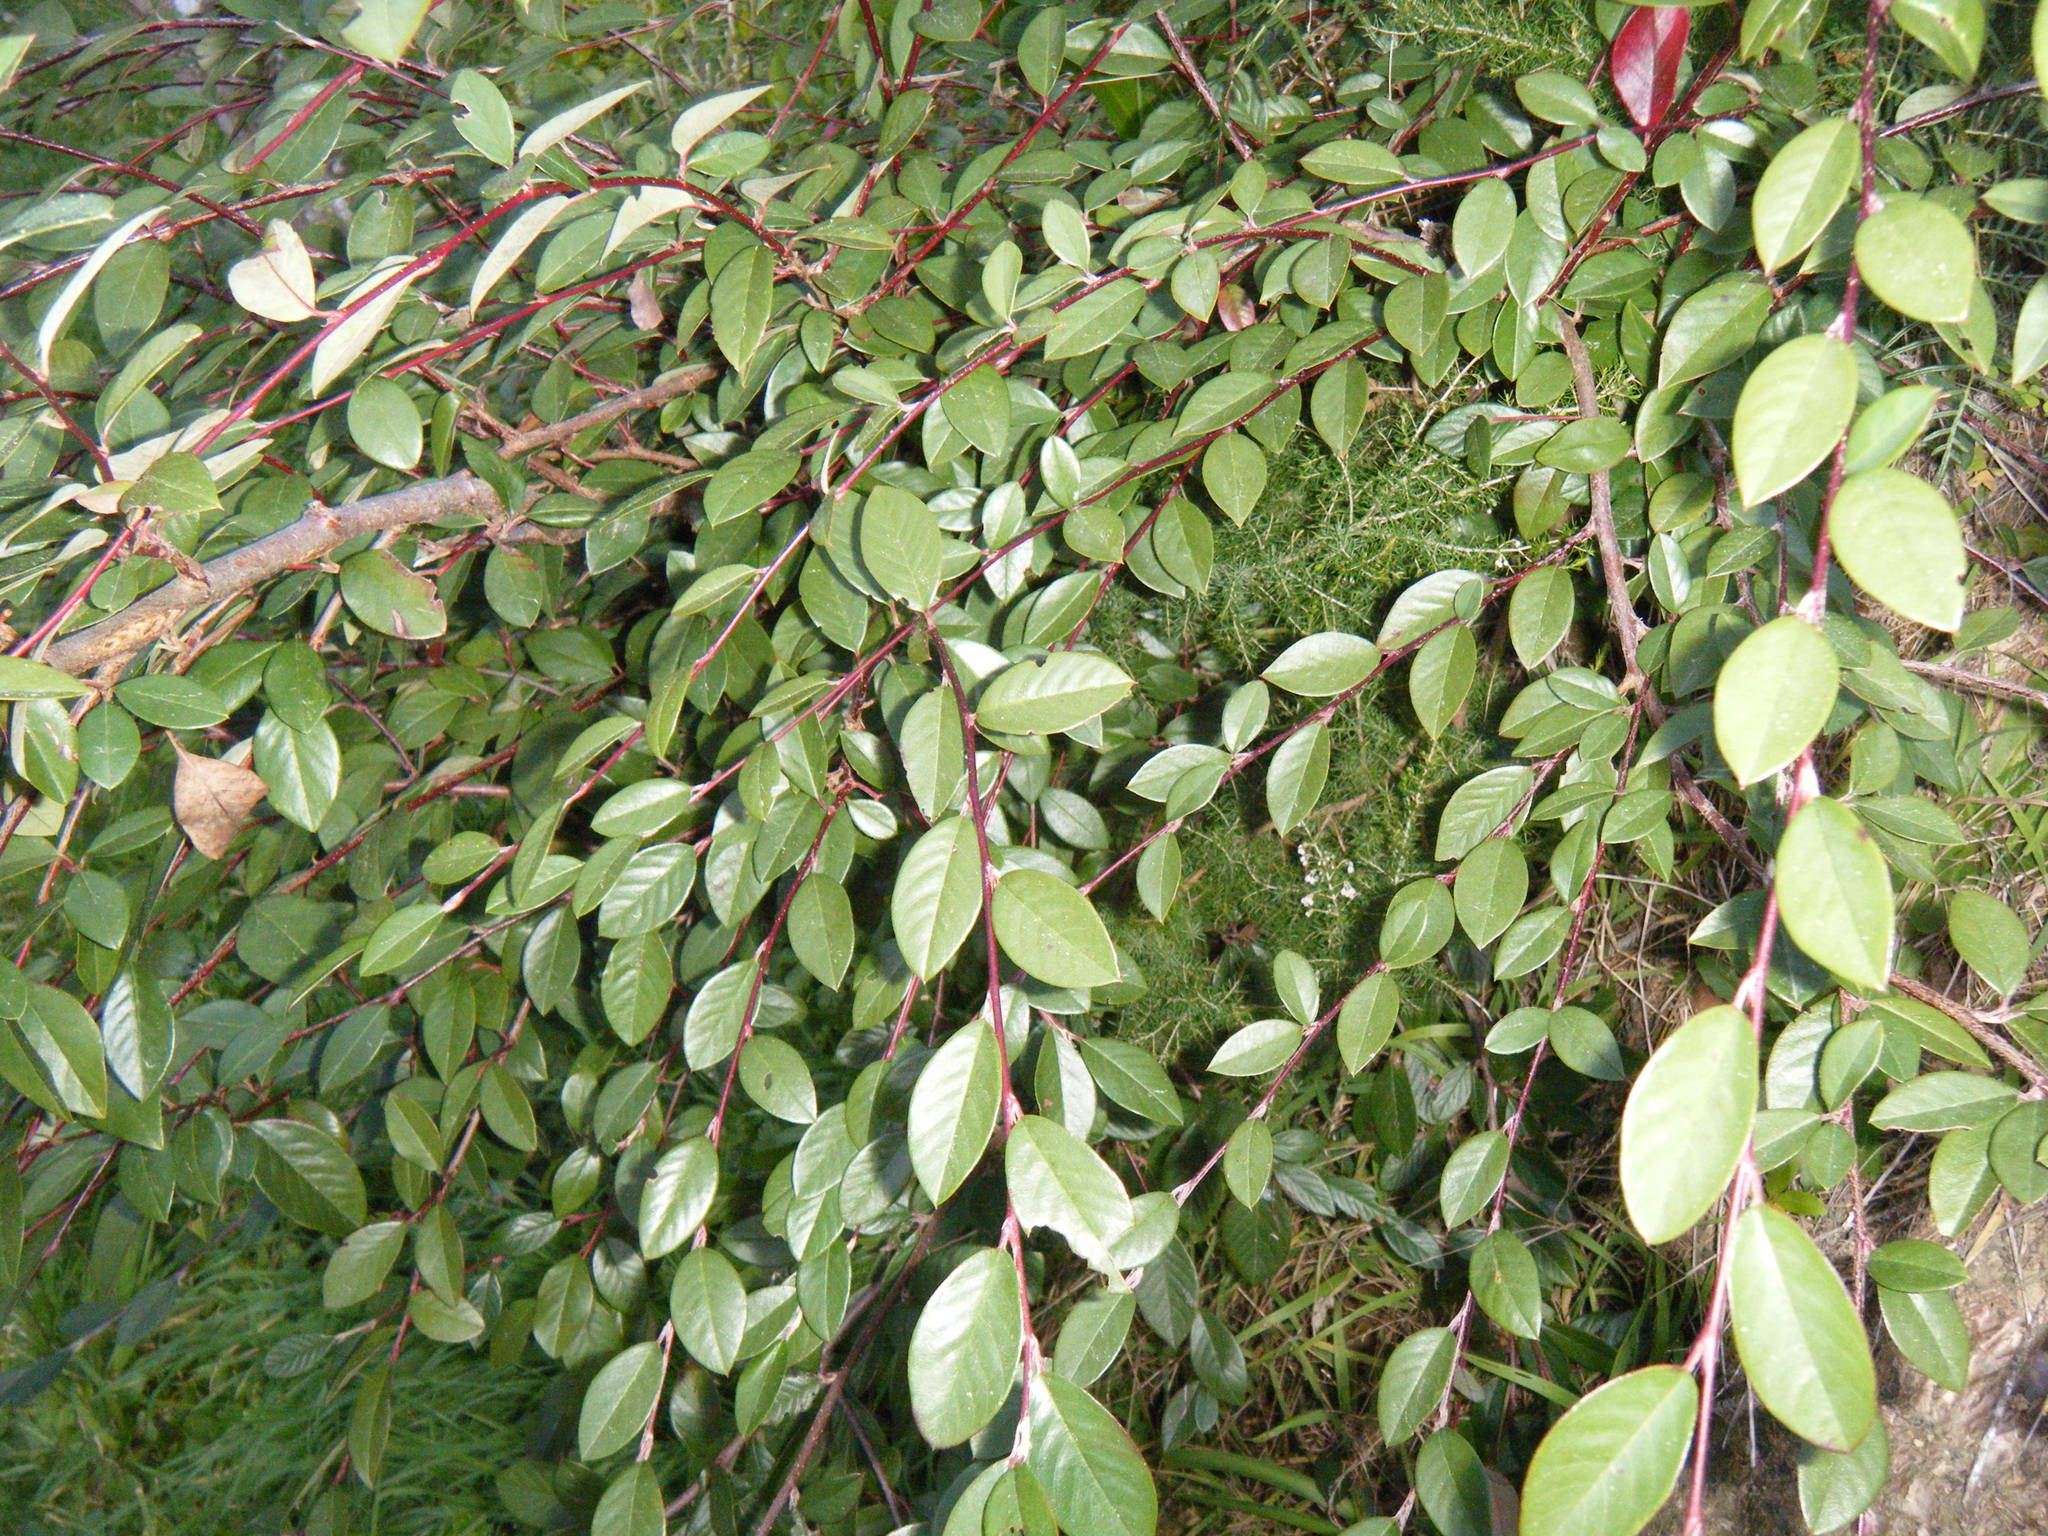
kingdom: Plantae
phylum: Tracheophyta
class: Magnoliopsida
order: Rosales
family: Rosaceae
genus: Cotoneaster
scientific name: Cotoneaster glaucophyllus
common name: Glaucous cotoneaster
